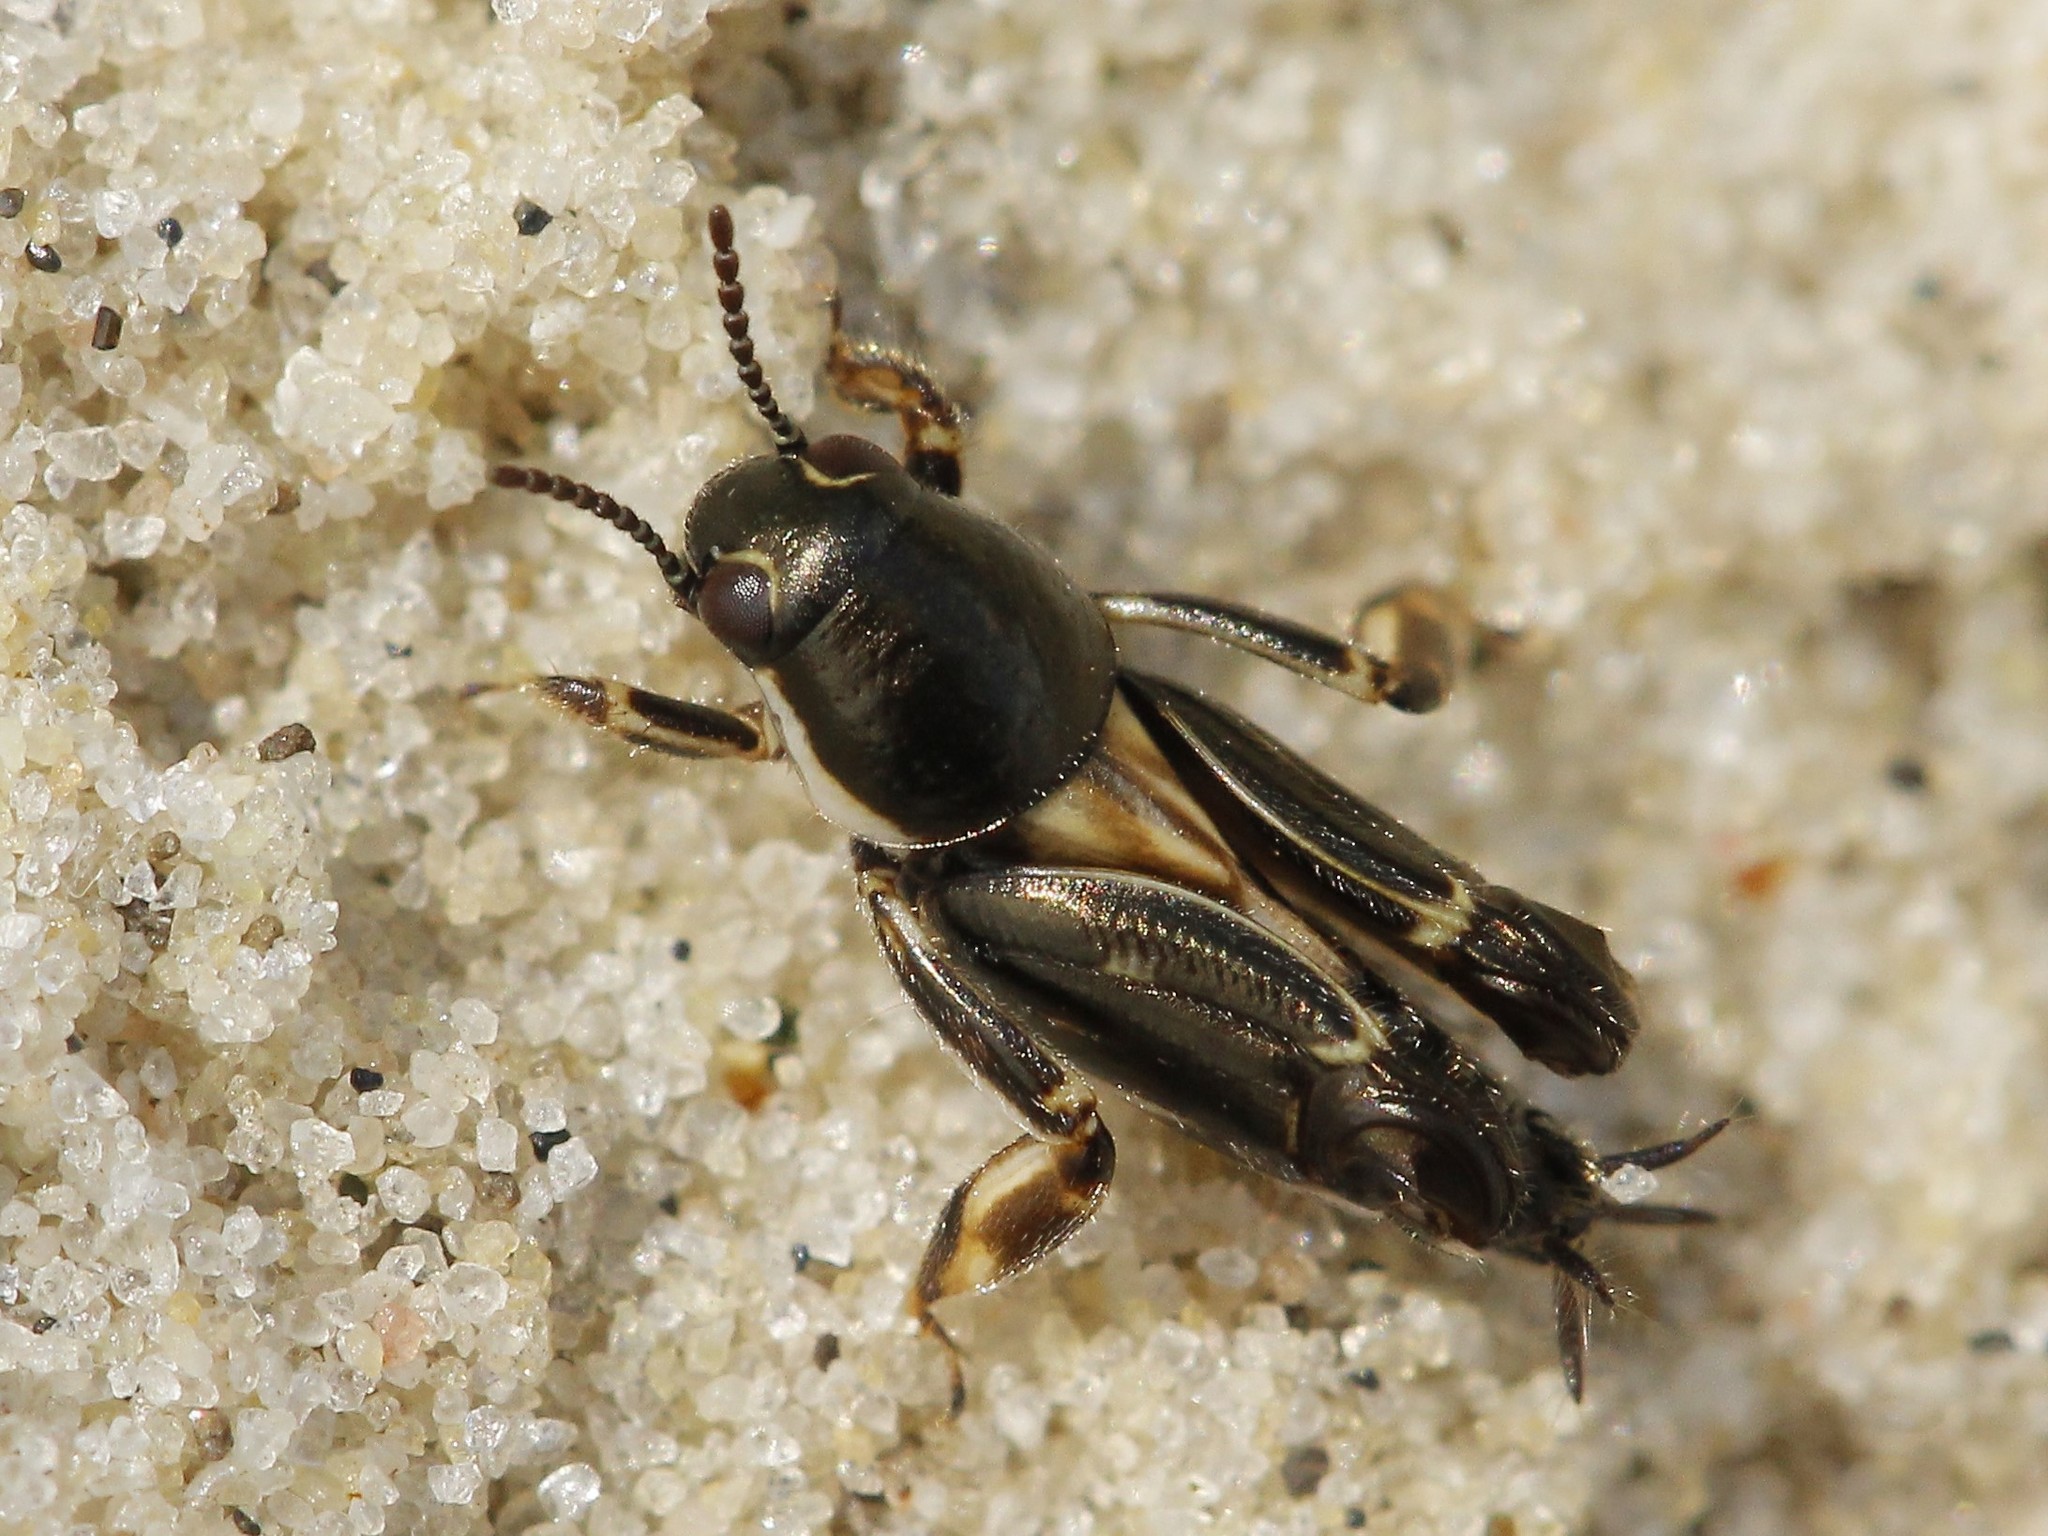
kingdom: Animalia
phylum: Arthropoda
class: Insecta
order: Orthoptera
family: Tridactylidae
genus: Xya
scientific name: Xya variegata
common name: Le tridactyle panaché
